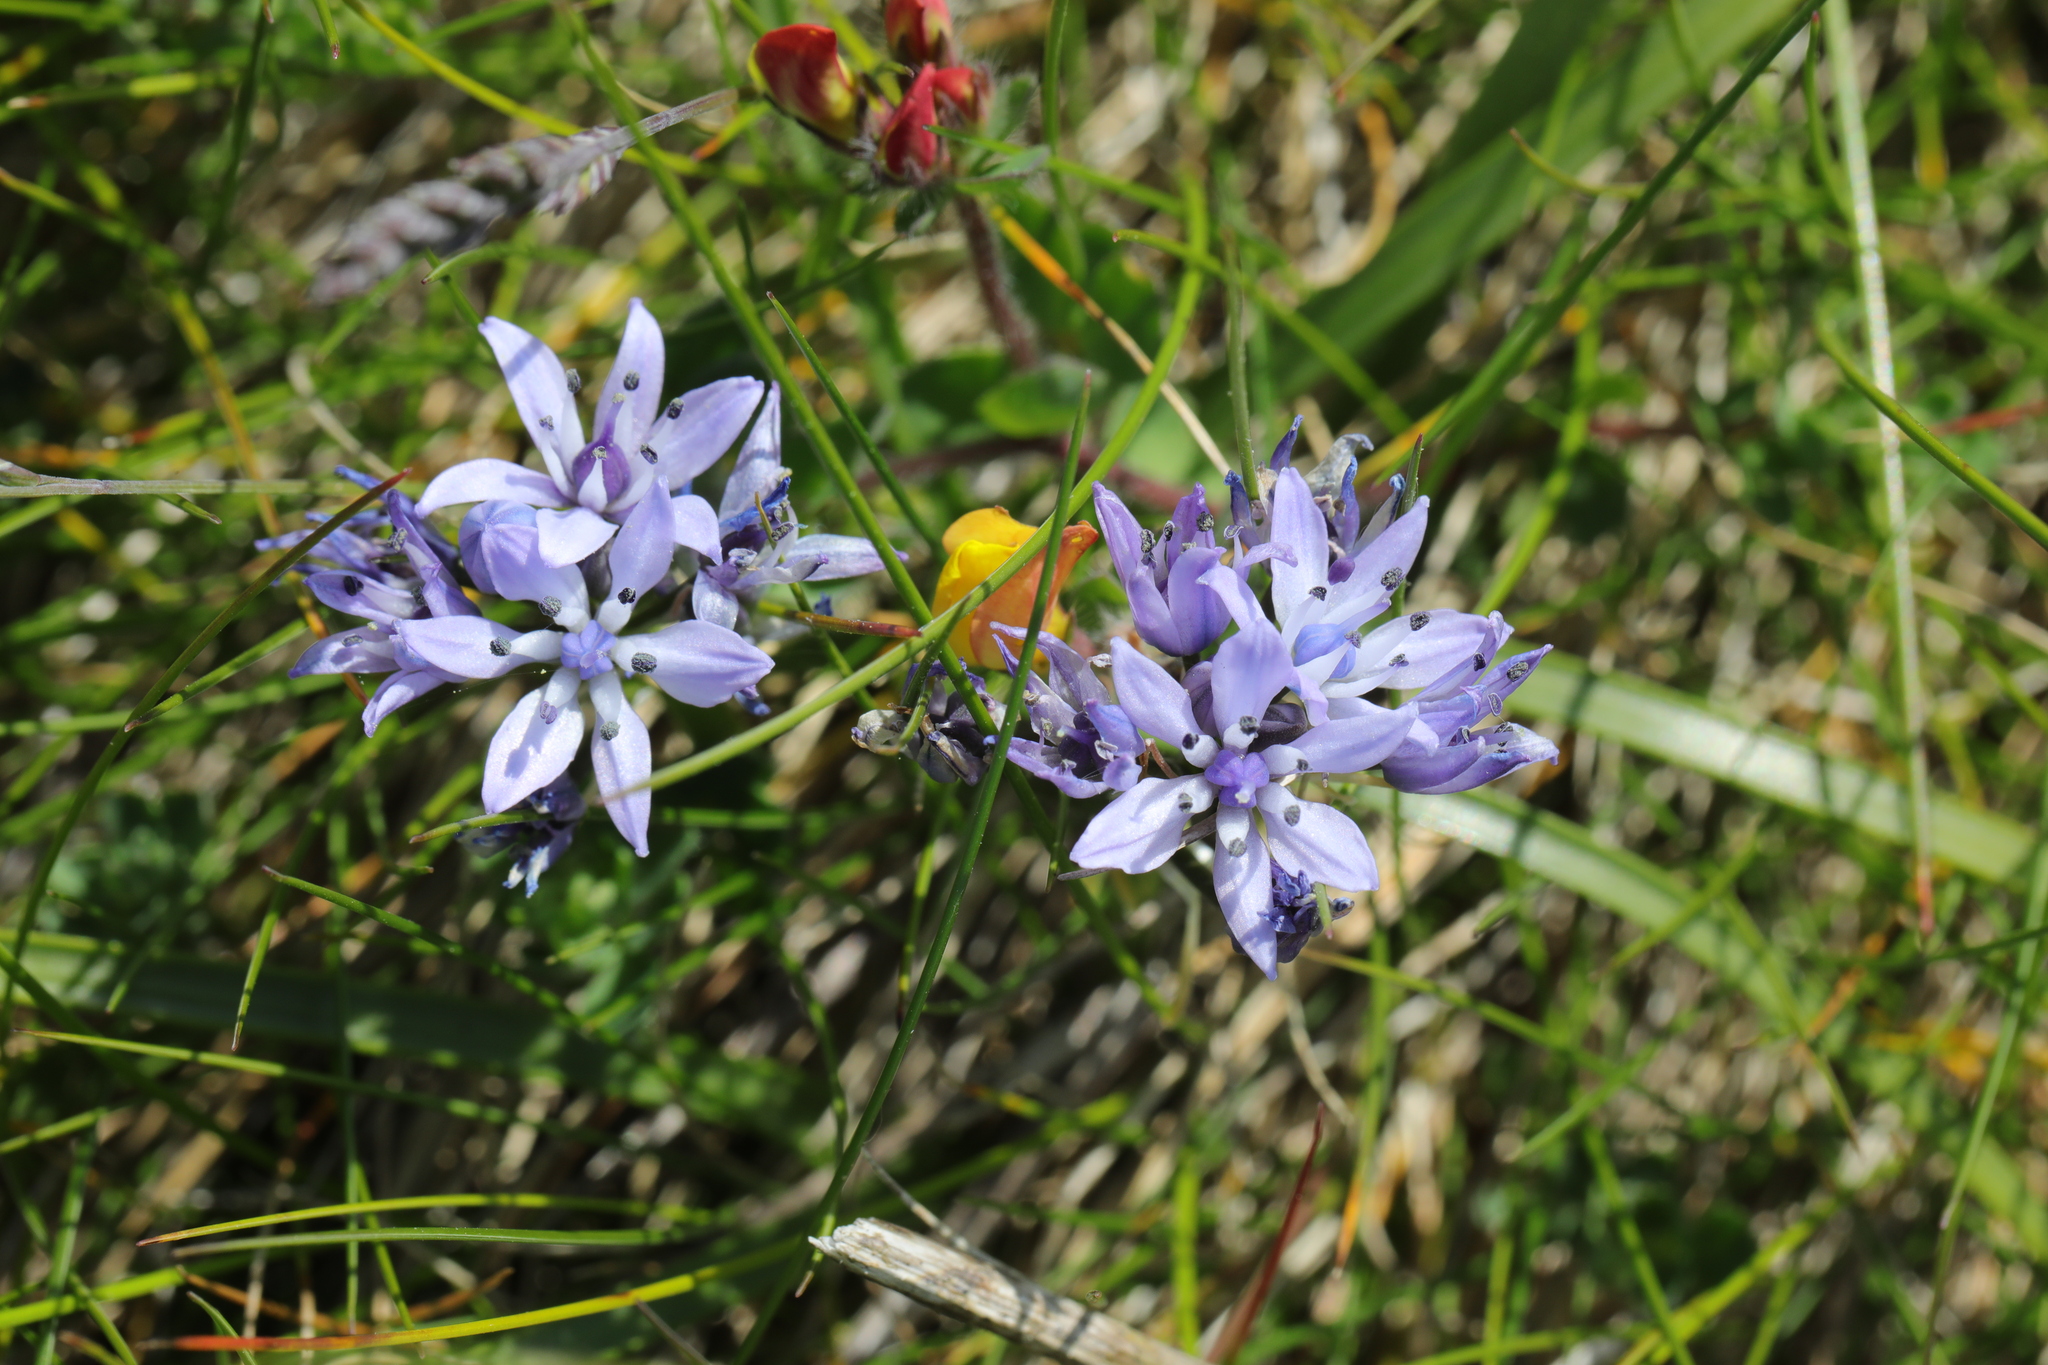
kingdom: Plantae
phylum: Tracheophyta
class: Liliopsida
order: Asparagales
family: Asparagaceae
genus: Scilla
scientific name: Scilla verna
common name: Spring squill
